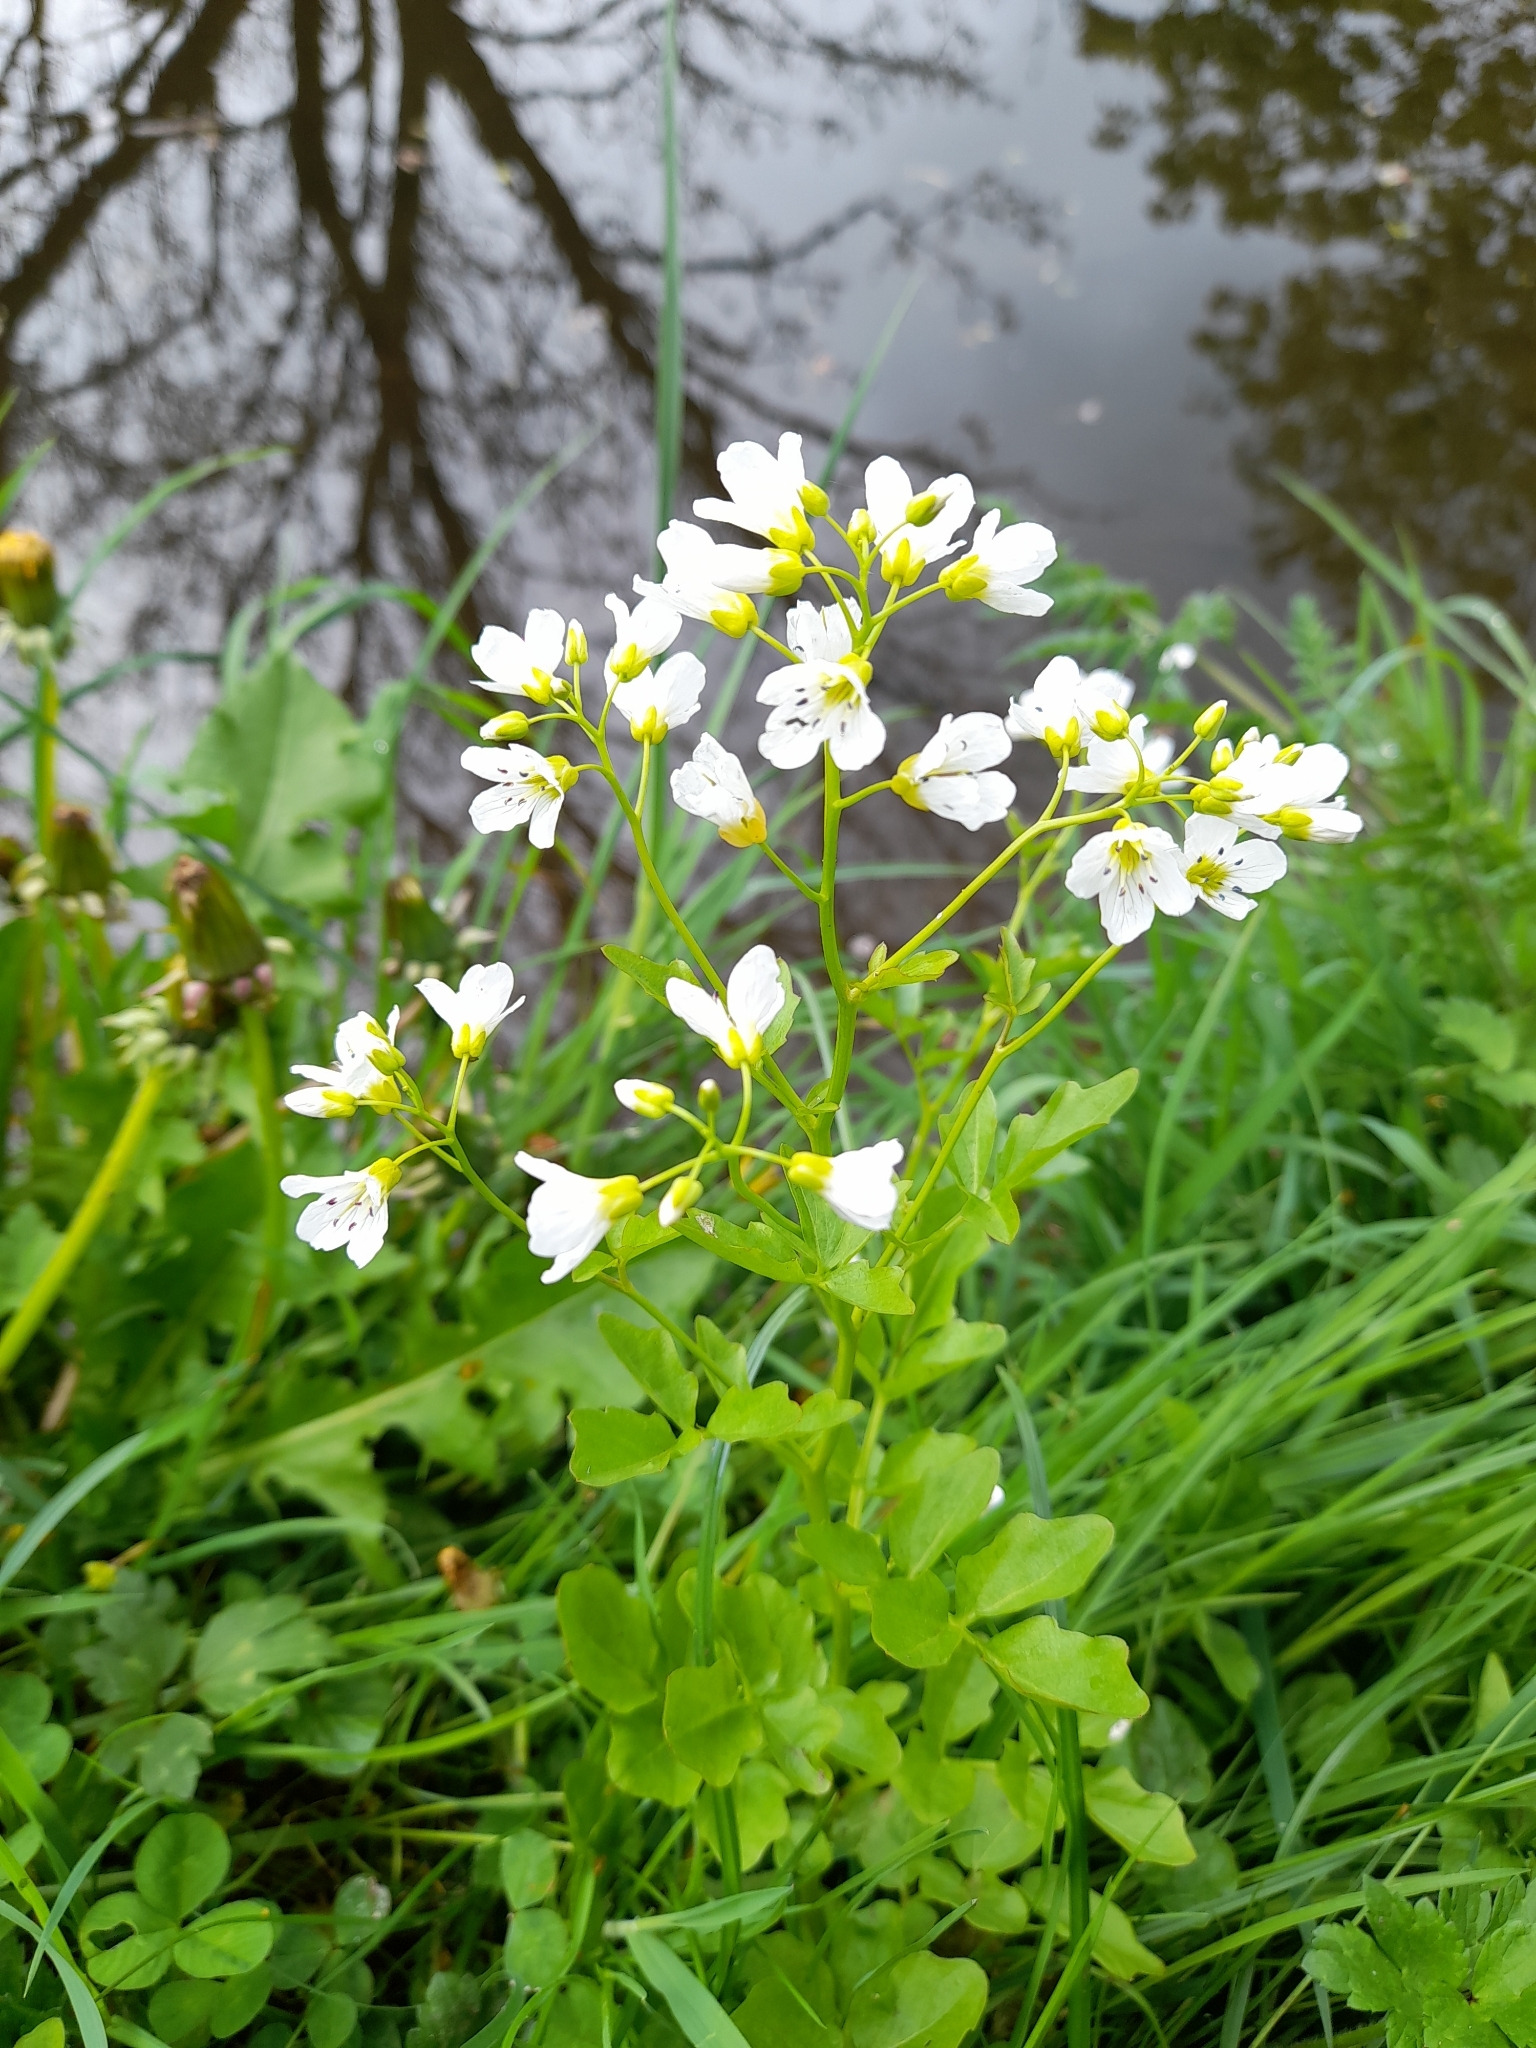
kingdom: Plantae
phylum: Tracheophyta
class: Magnoliopsida
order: Brassicales
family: Brassicaceae
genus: Cardamine
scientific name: Cardamine amara
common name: Large bitter-cress
